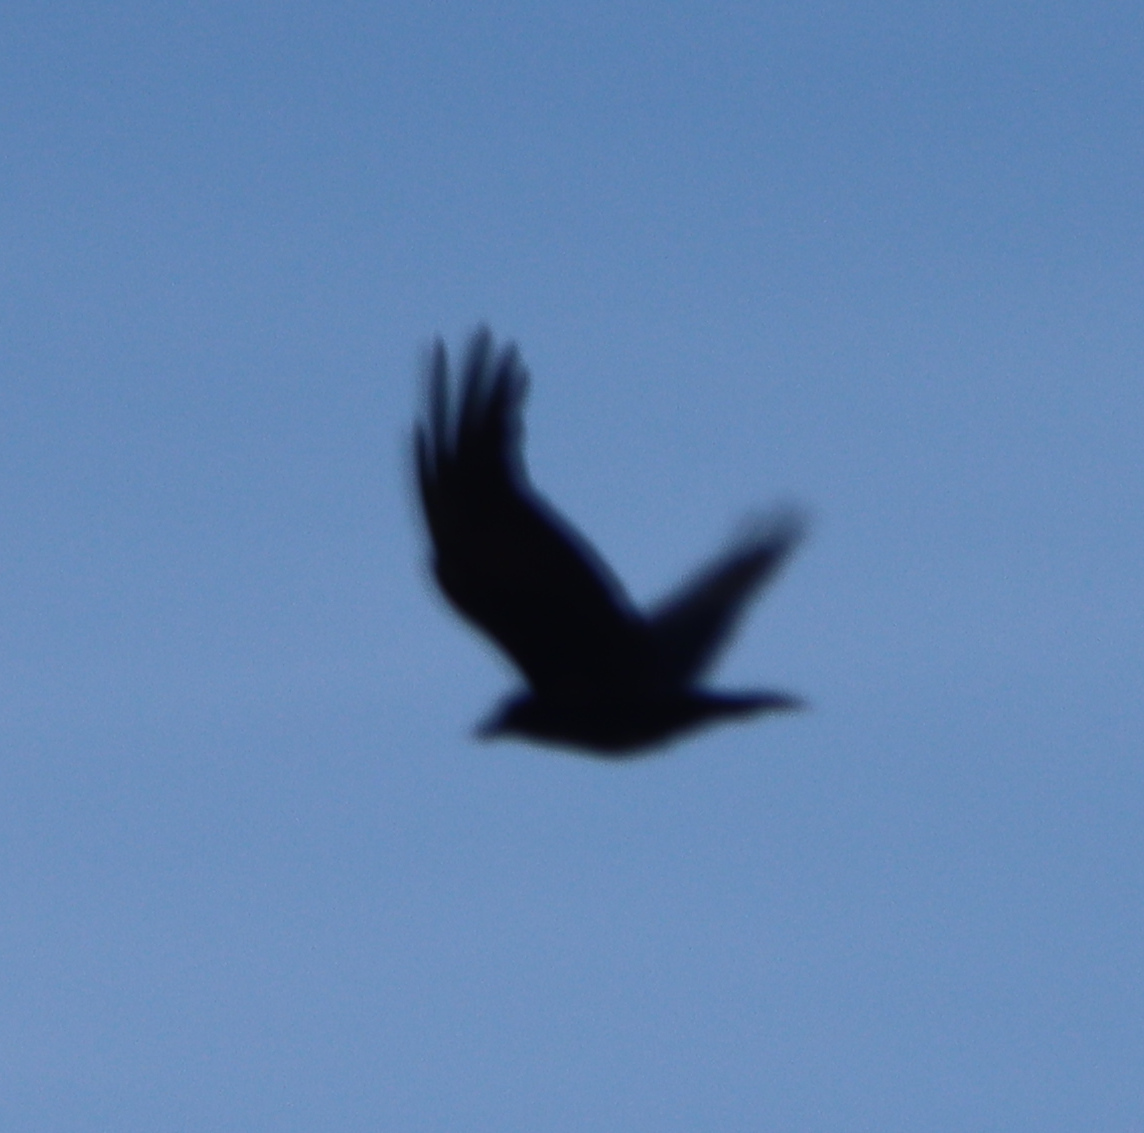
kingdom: Animalia
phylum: Chordata
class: Aves
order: Passeriformes
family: Corvidae
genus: Corvus
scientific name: Corvus brachyrhynchos
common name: American crow
